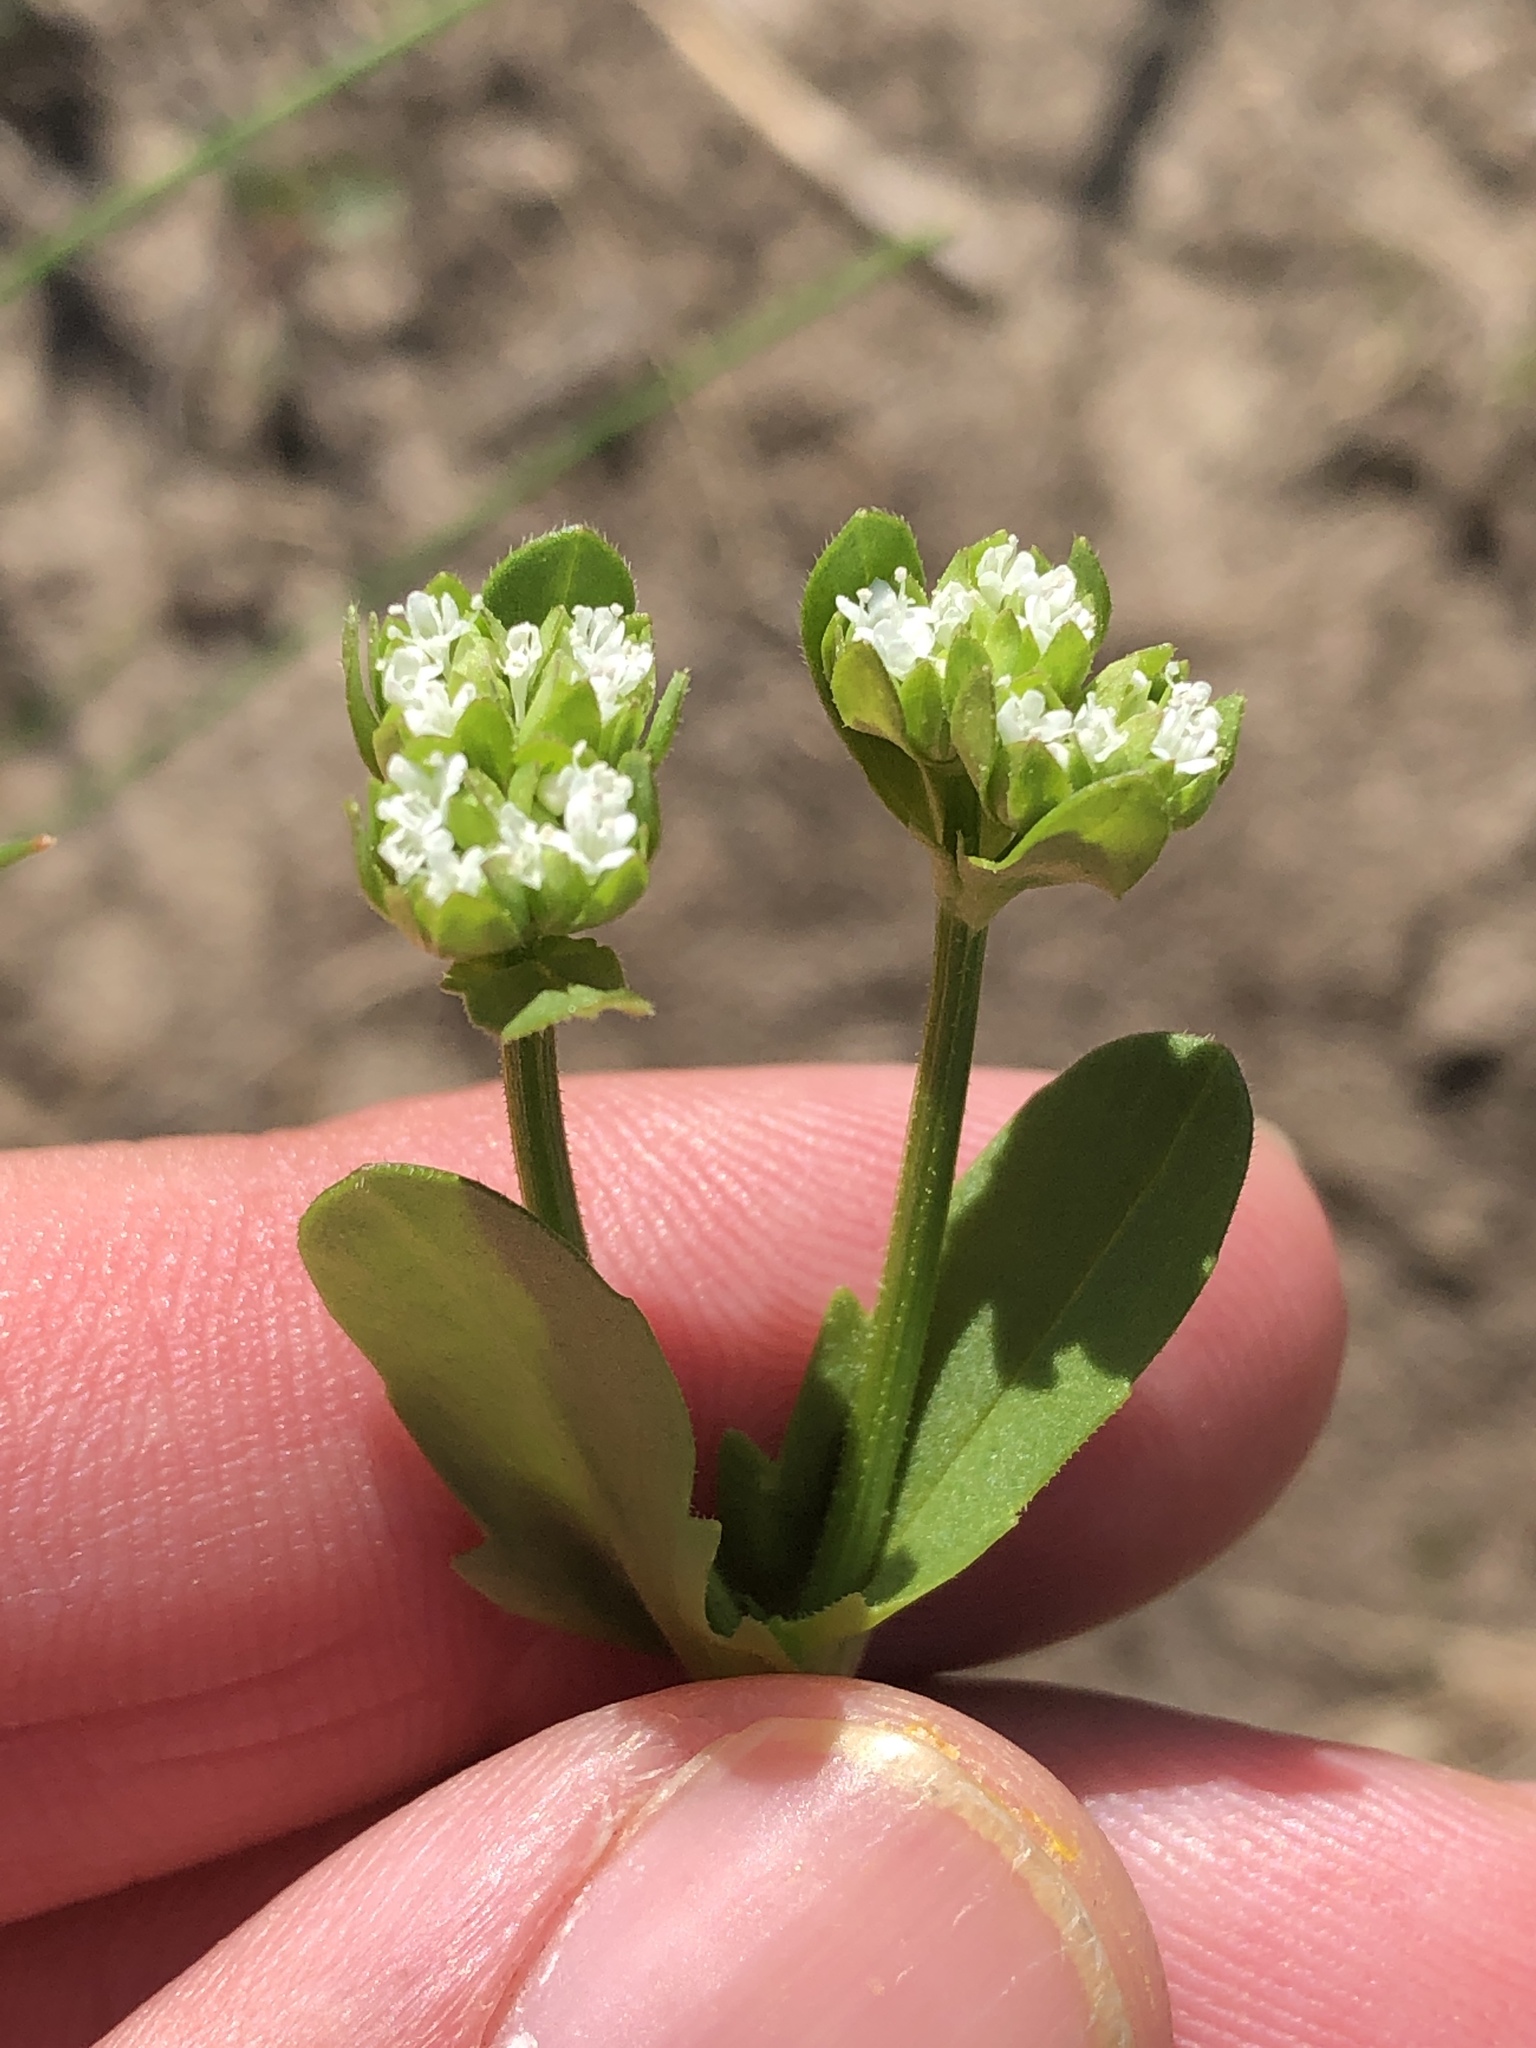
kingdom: Plantae
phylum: Tracheophyta
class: Magnoliopsida
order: Dipsacales
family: Caprifoliaceae
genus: Valerianella
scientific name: Valerianella radiata
